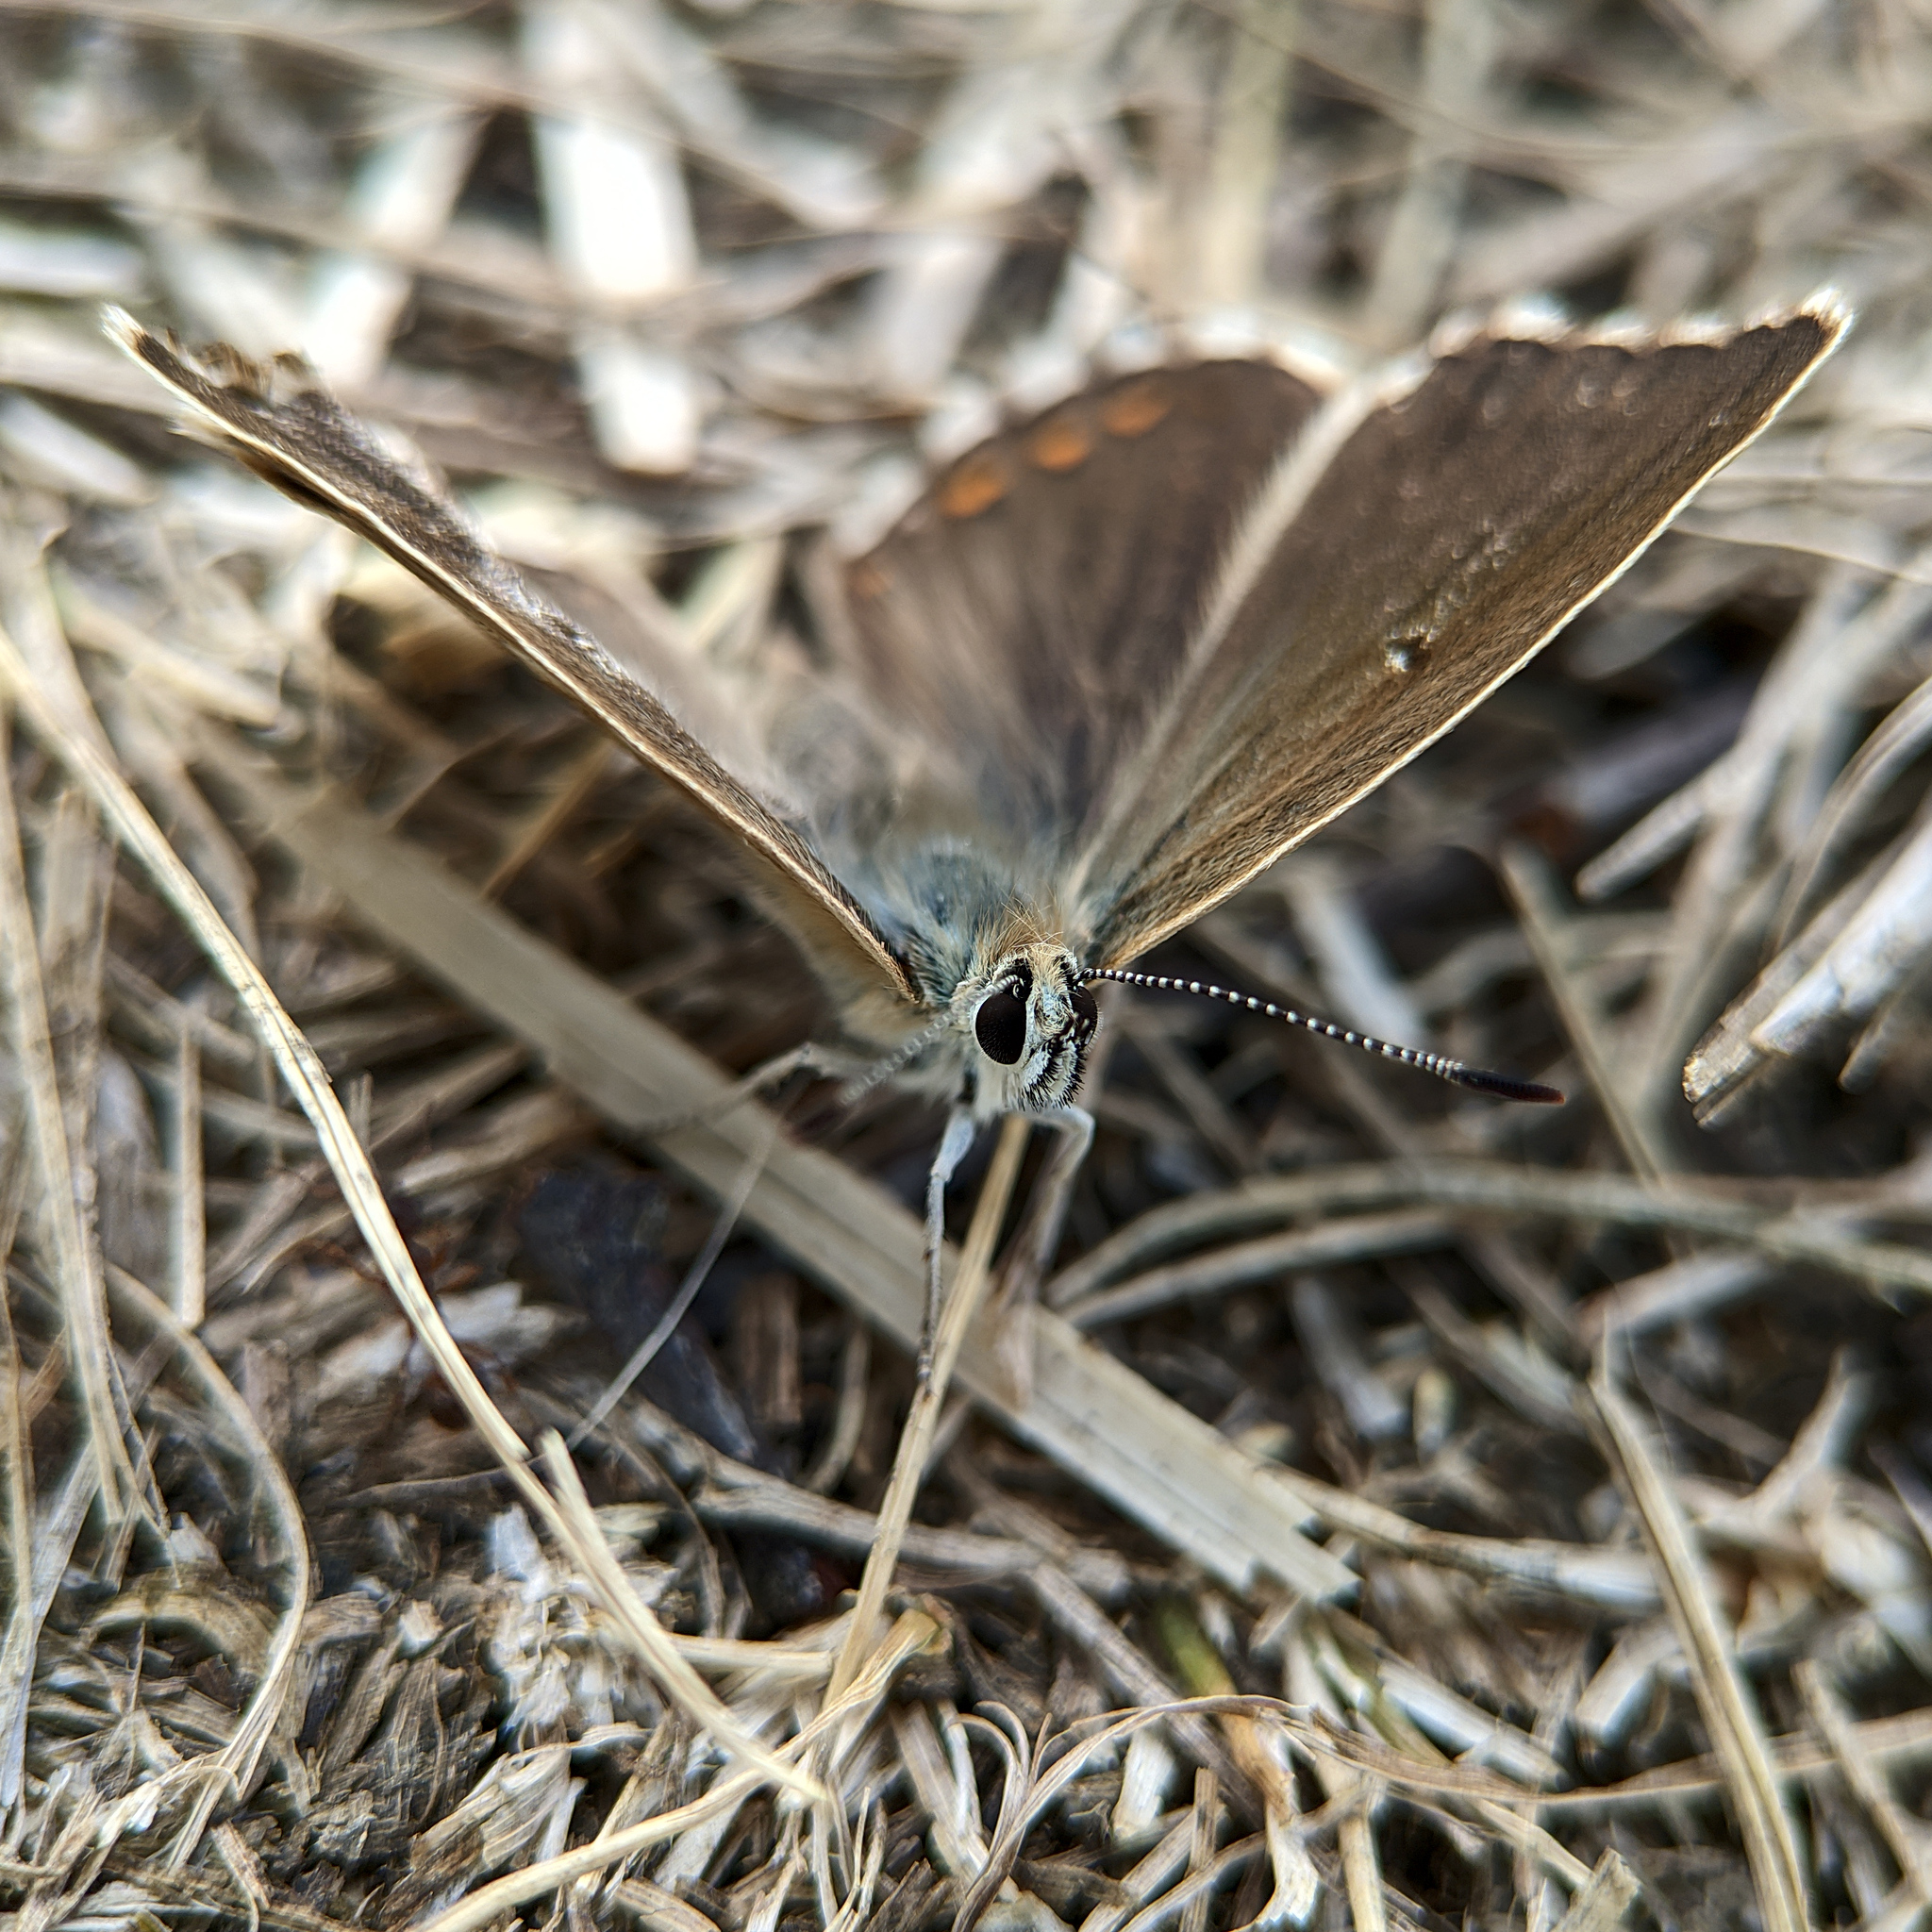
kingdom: Animalia
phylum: Arthropoda
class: Insecta
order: Lepidoptera
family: Lycaenidae
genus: Lysandra
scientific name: Lysandra coridon
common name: Chalkhill blue
